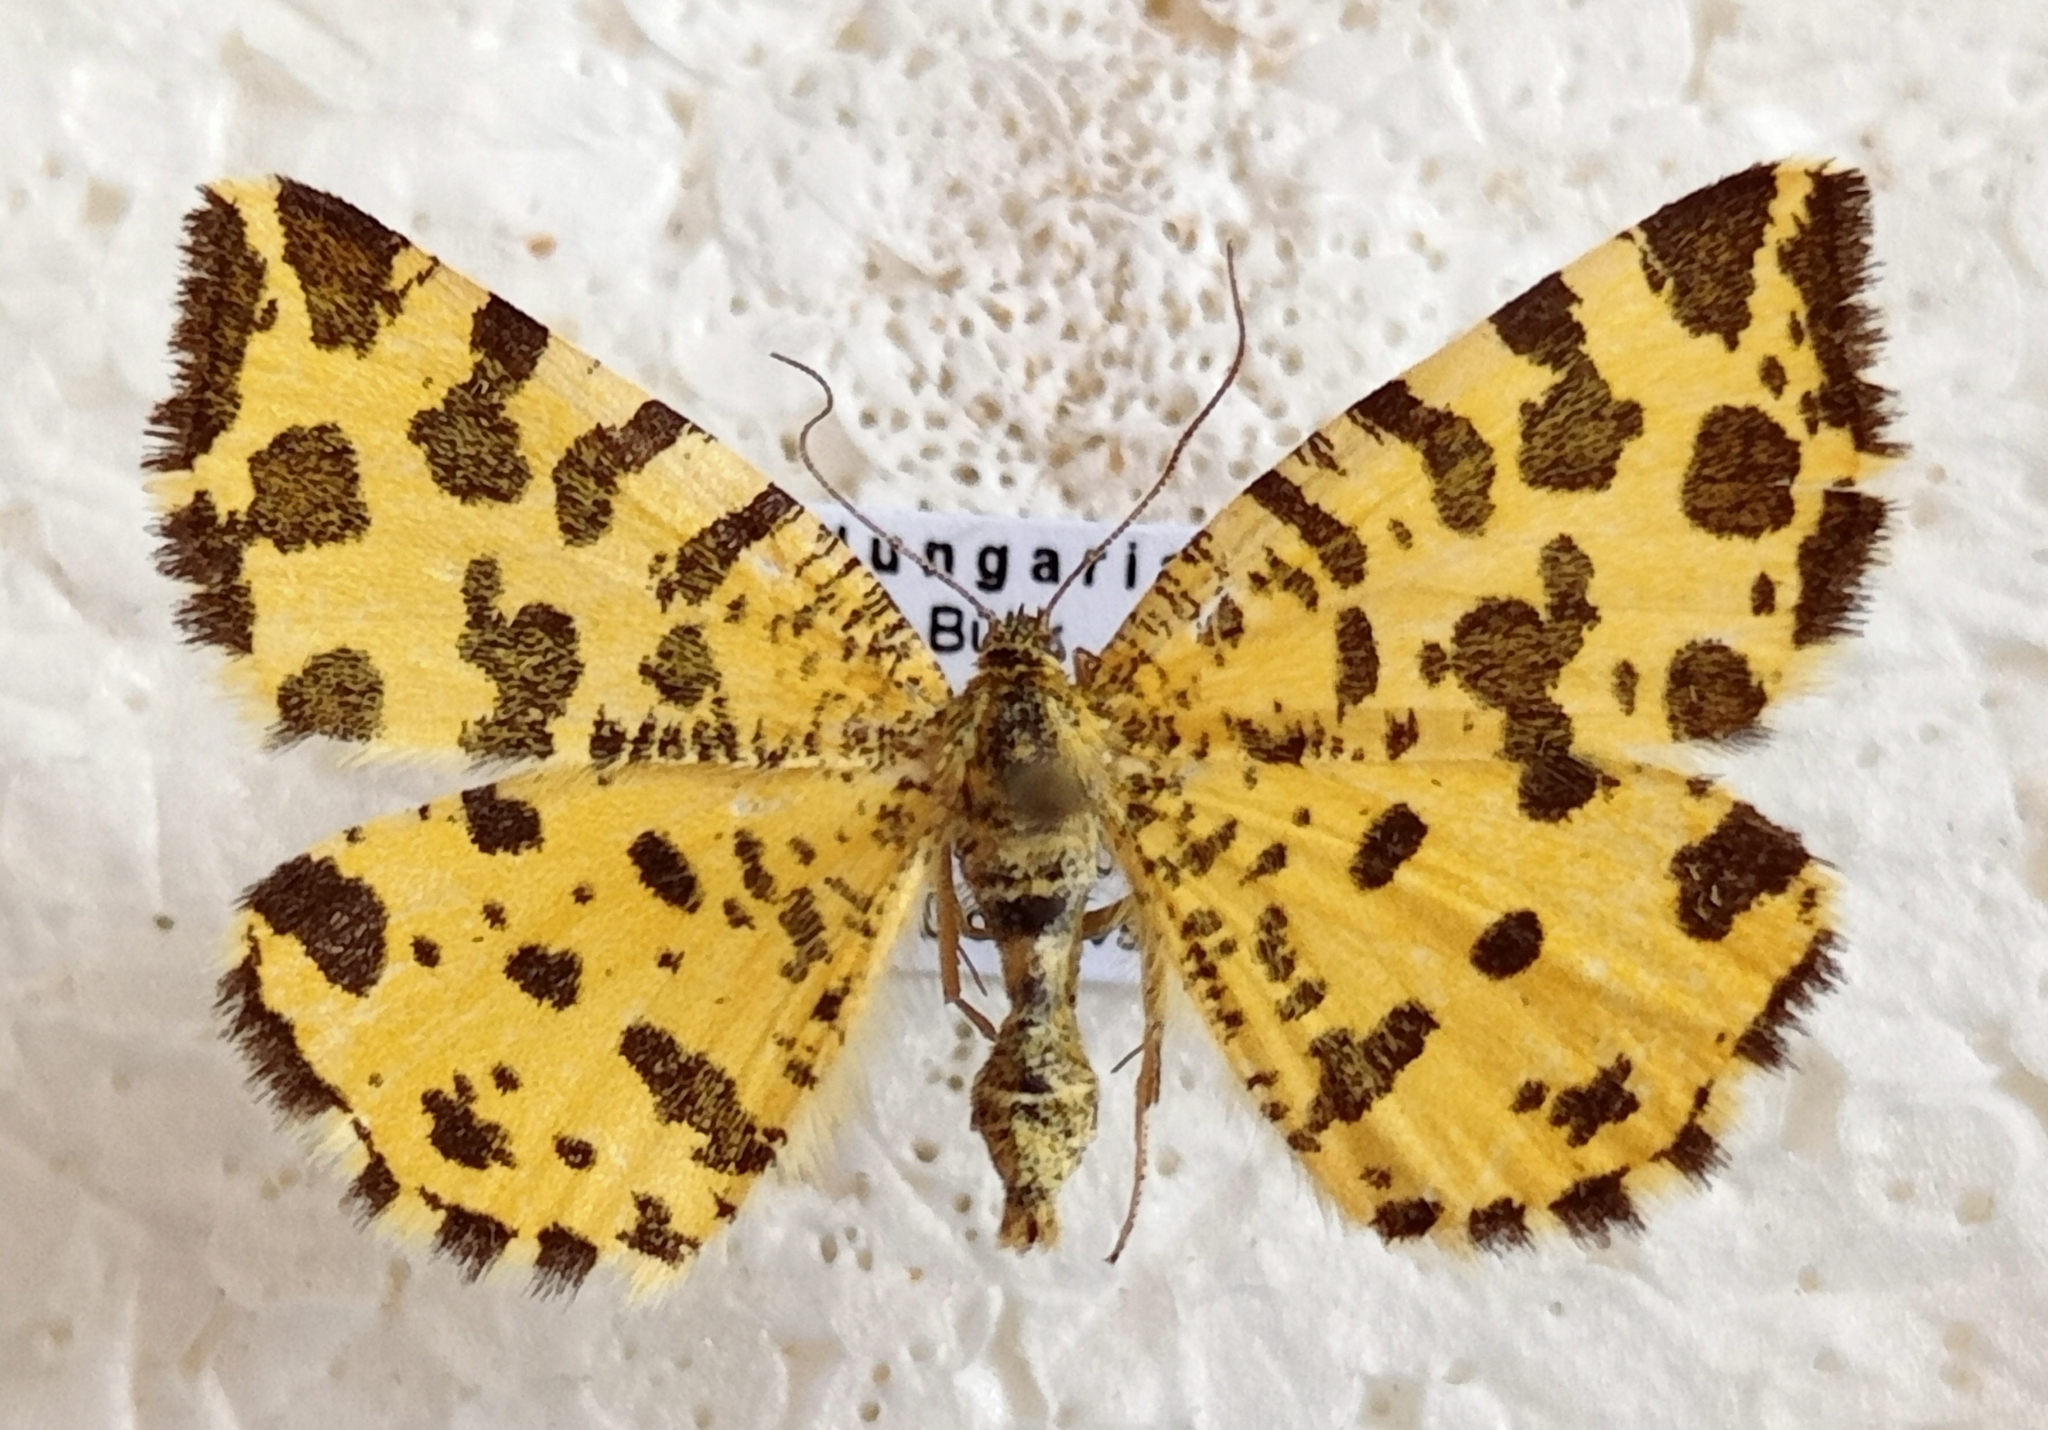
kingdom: Animalia
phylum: Arthropoda
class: Insecta
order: Lepidoptera
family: Geometridae
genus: Pseudopanthera
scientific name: Pseudopanthera macularia
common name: Speckled yellow
